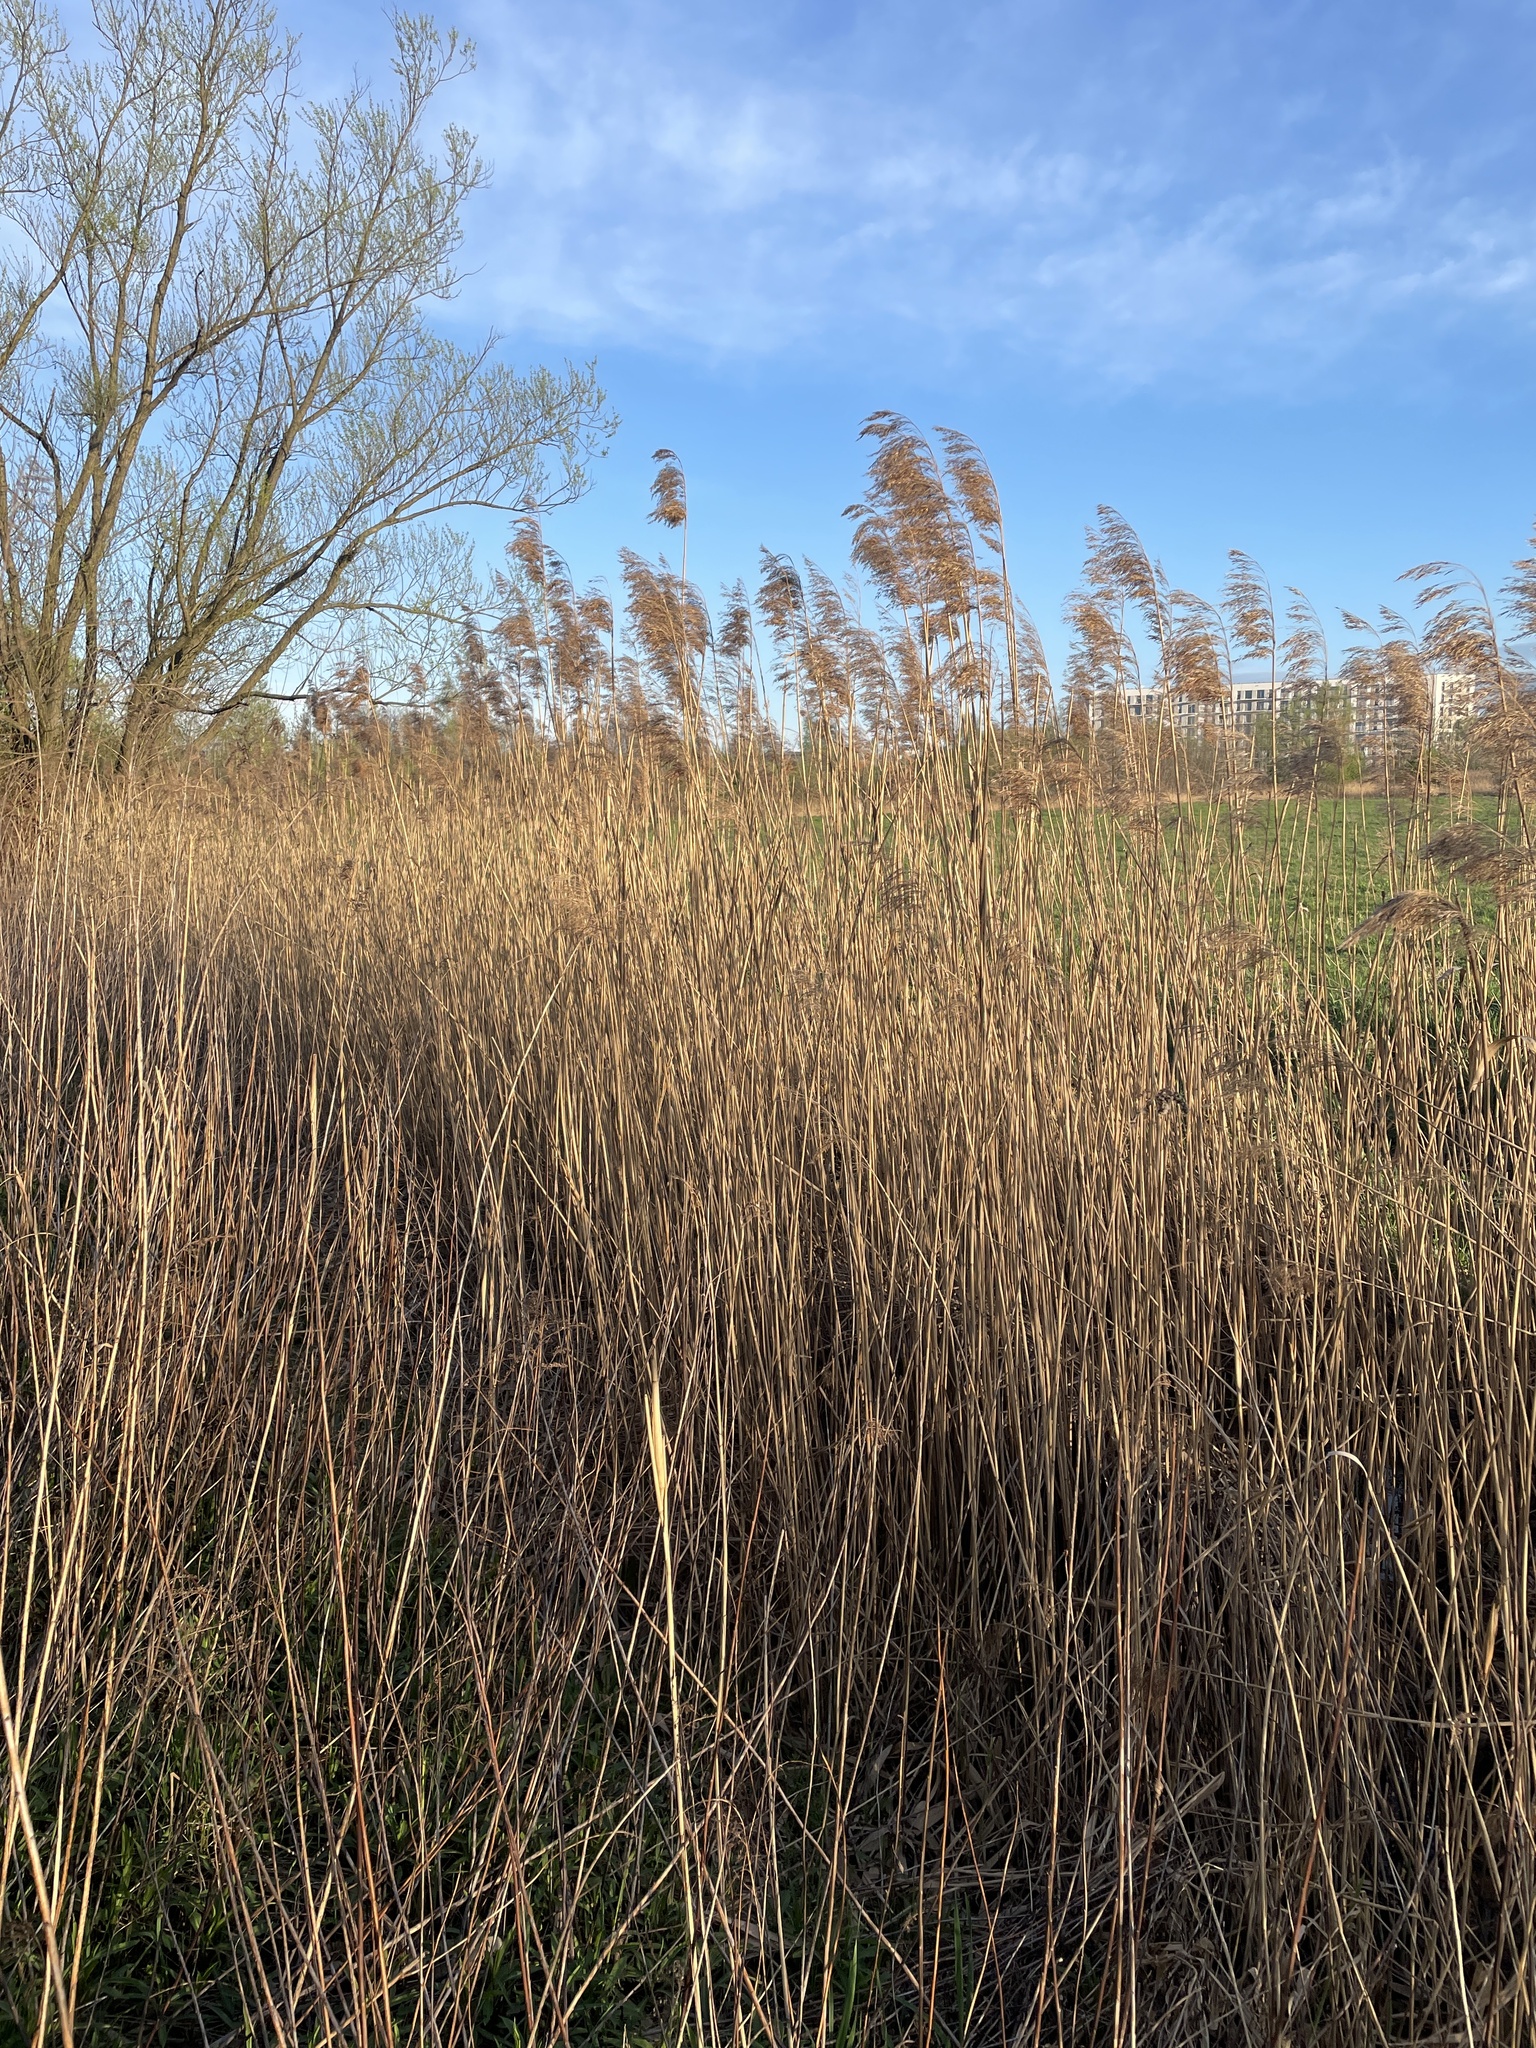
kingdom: Plantae
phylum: Tracheophyta
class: Liliopsida
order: Poales
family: Poaceae
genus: Phragmites
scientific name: Phragmites australis
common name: Common reed
